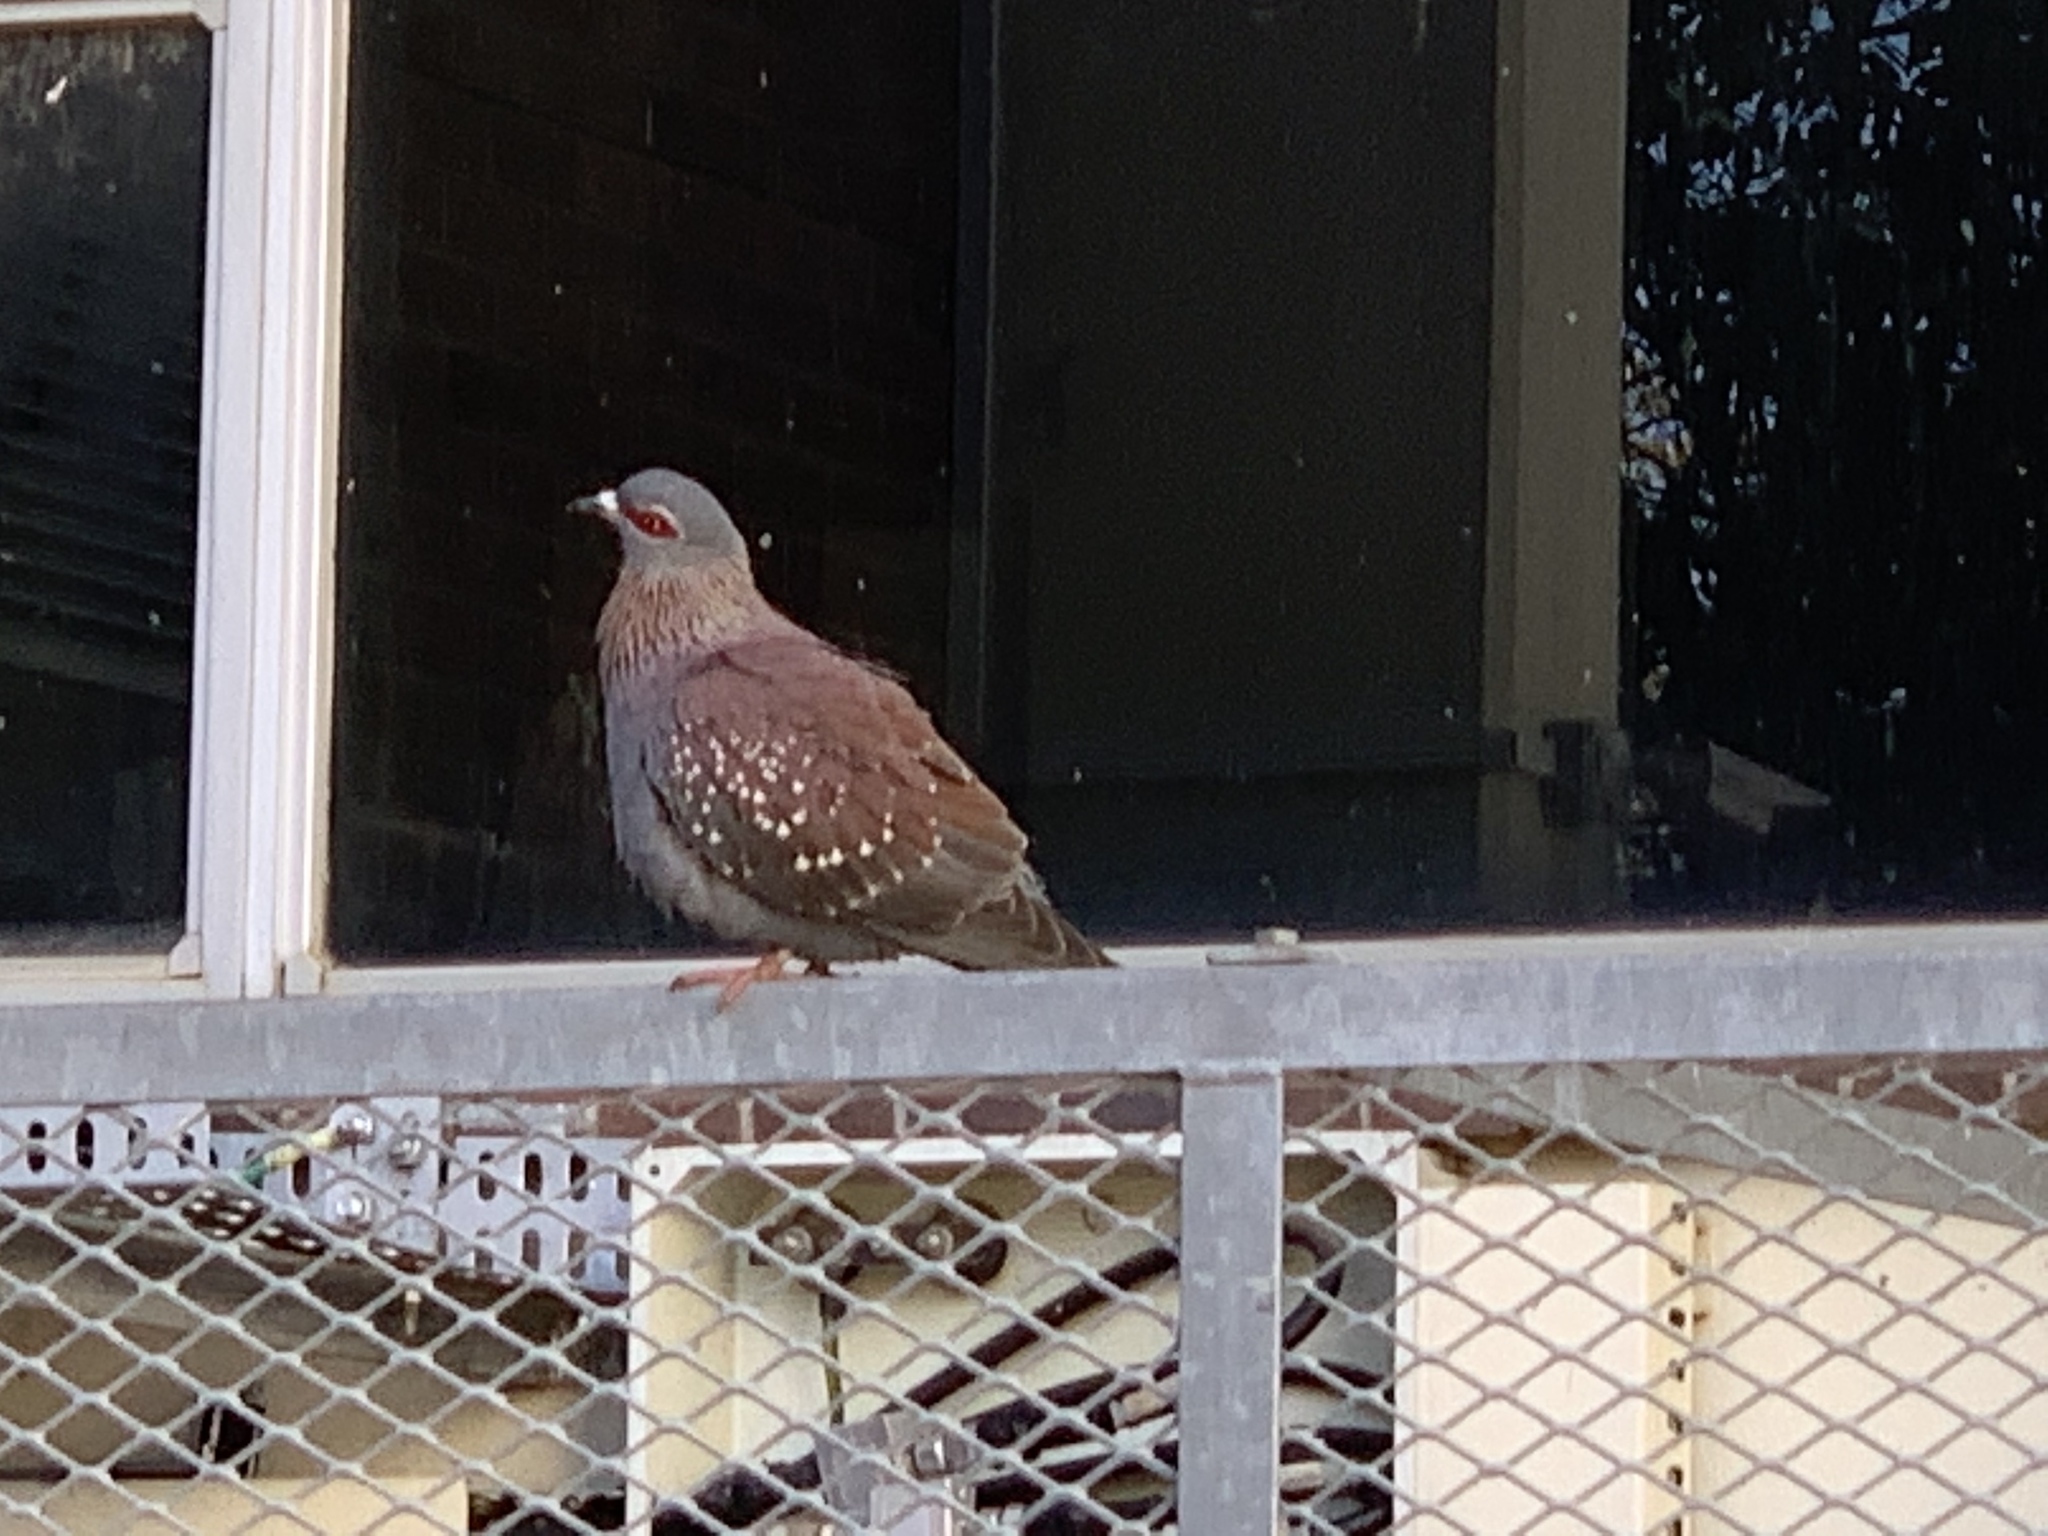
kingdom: Animalia
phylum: Chordata
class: Aves
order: Columbiformes
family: Columbidae
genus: Columba
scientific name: Columba guinea
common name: Speckled pigeon
